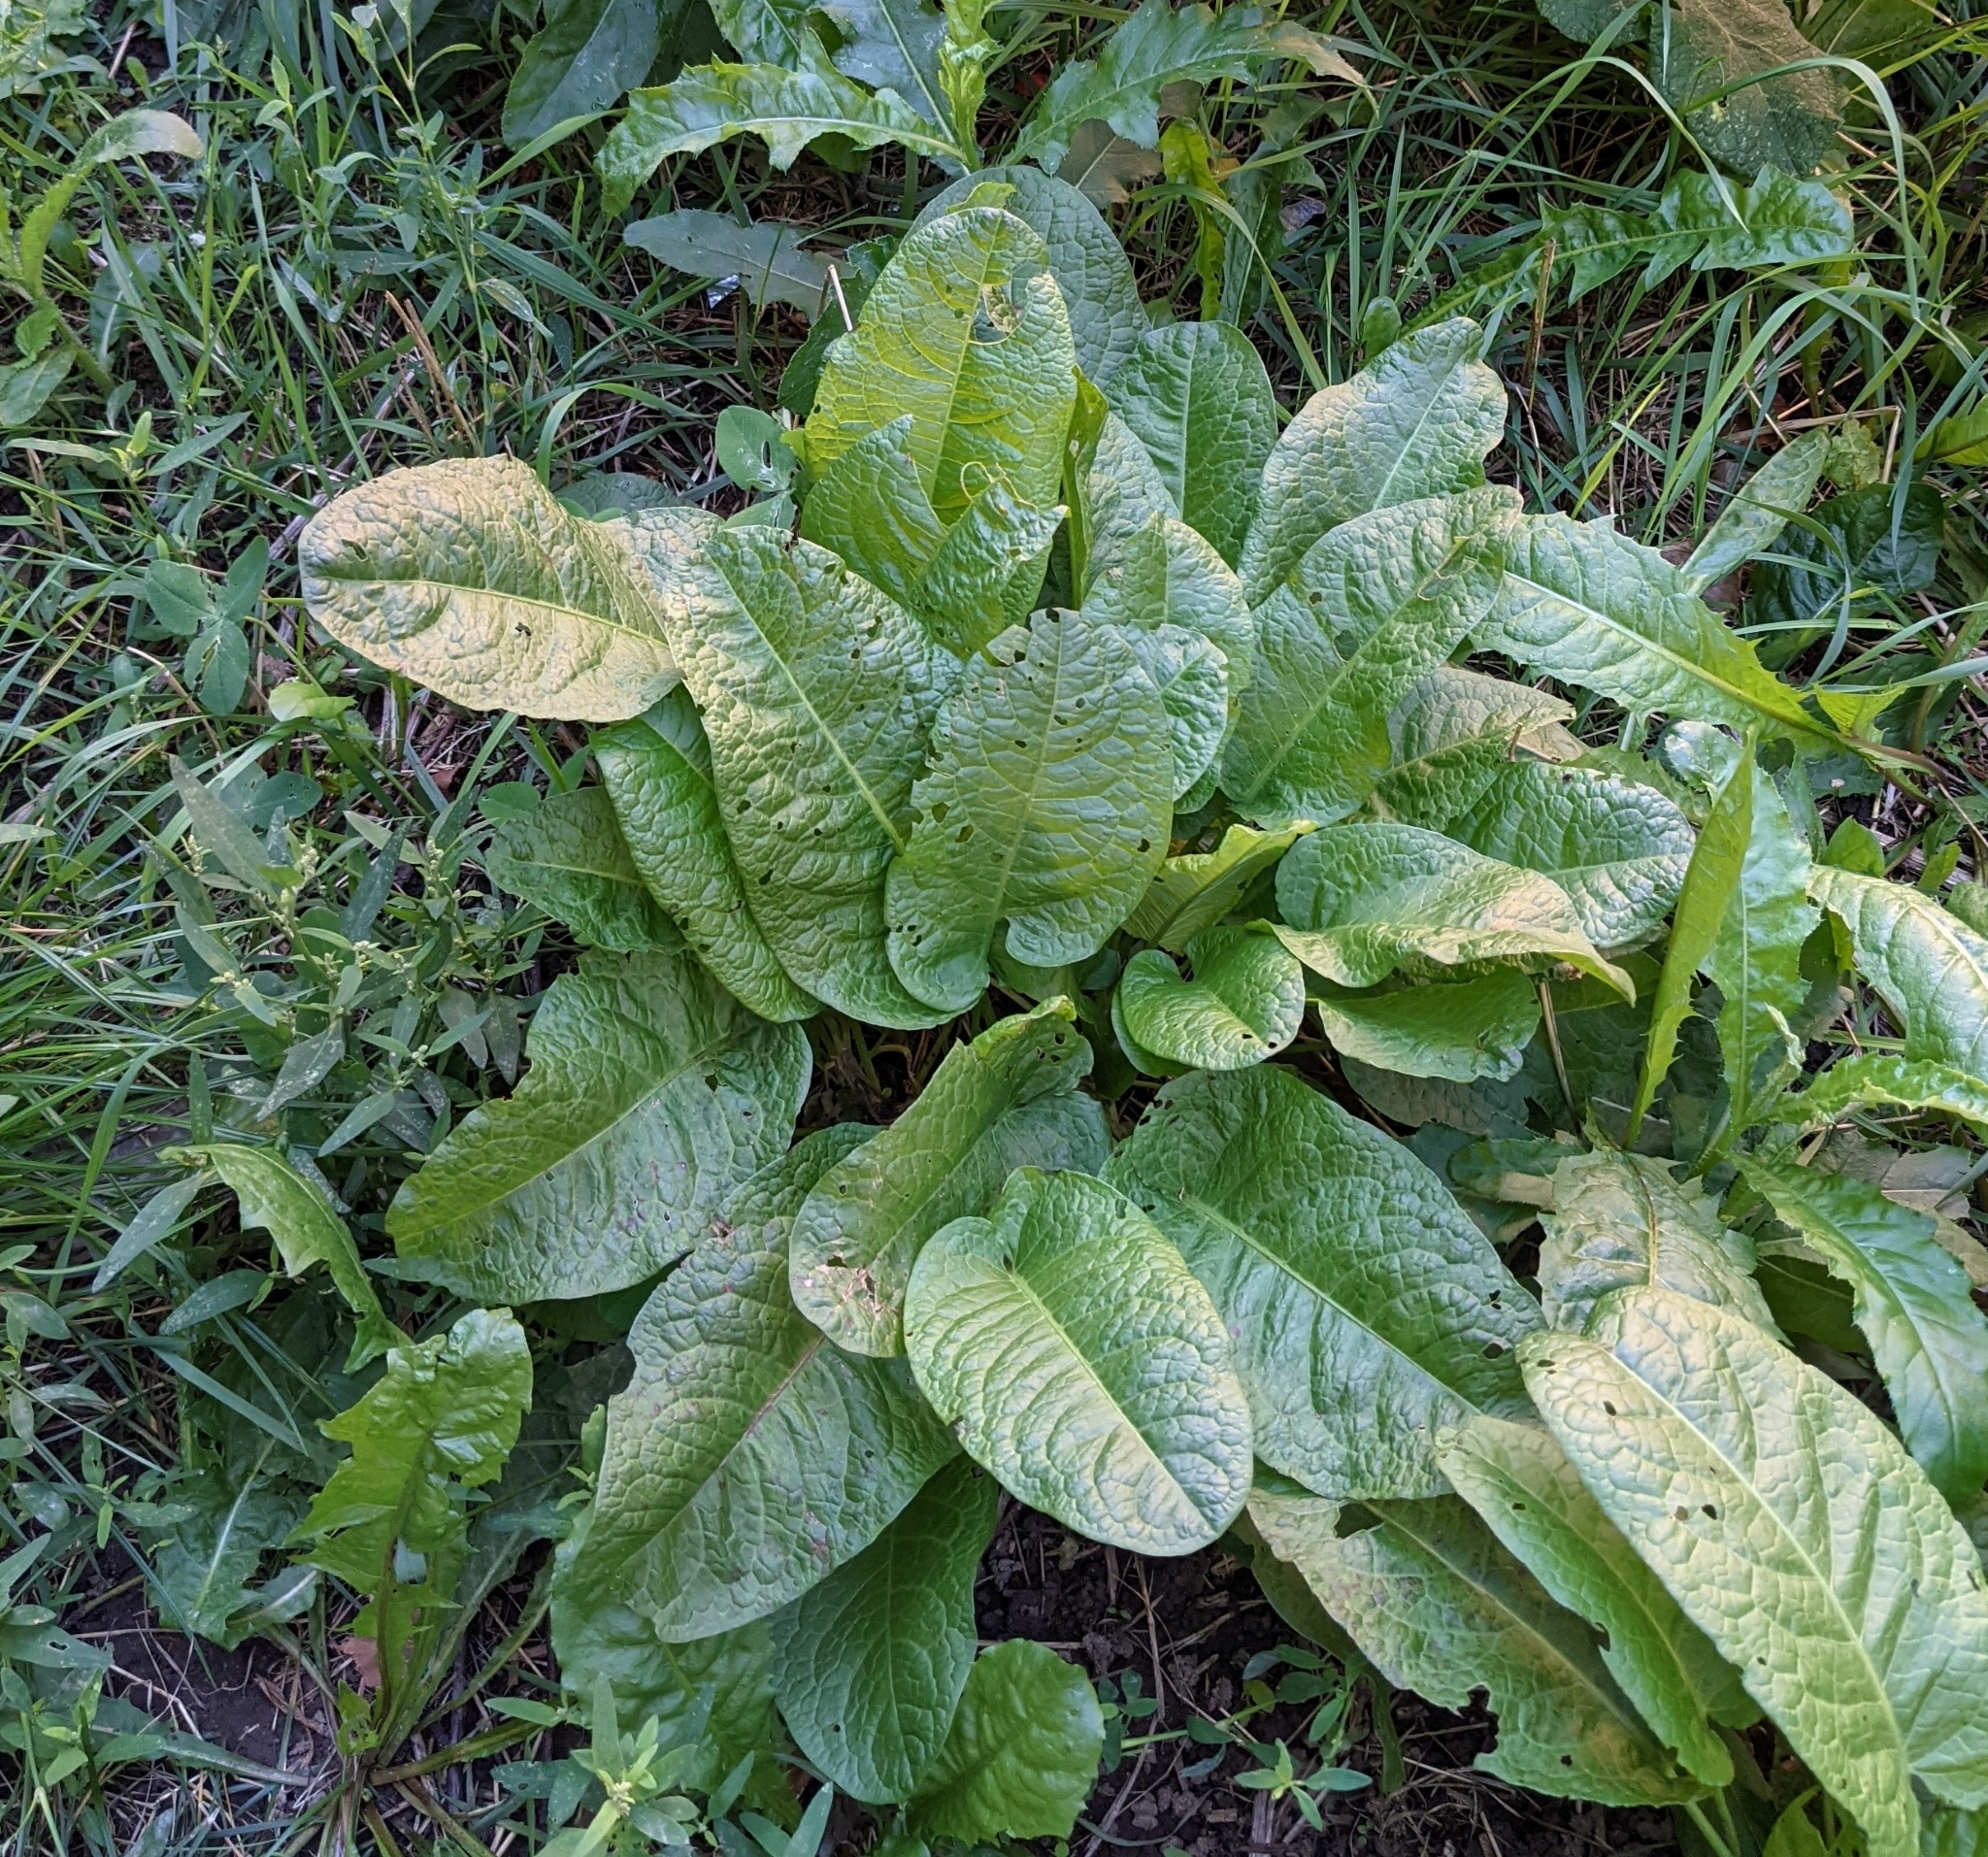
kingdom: Plantae
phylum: Tracheophyta
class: Magnoliopsida
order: Caryophyllales
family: Polygonaceae
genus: Rumex
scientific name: Rumex obtusifolius
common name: Bitter dock
